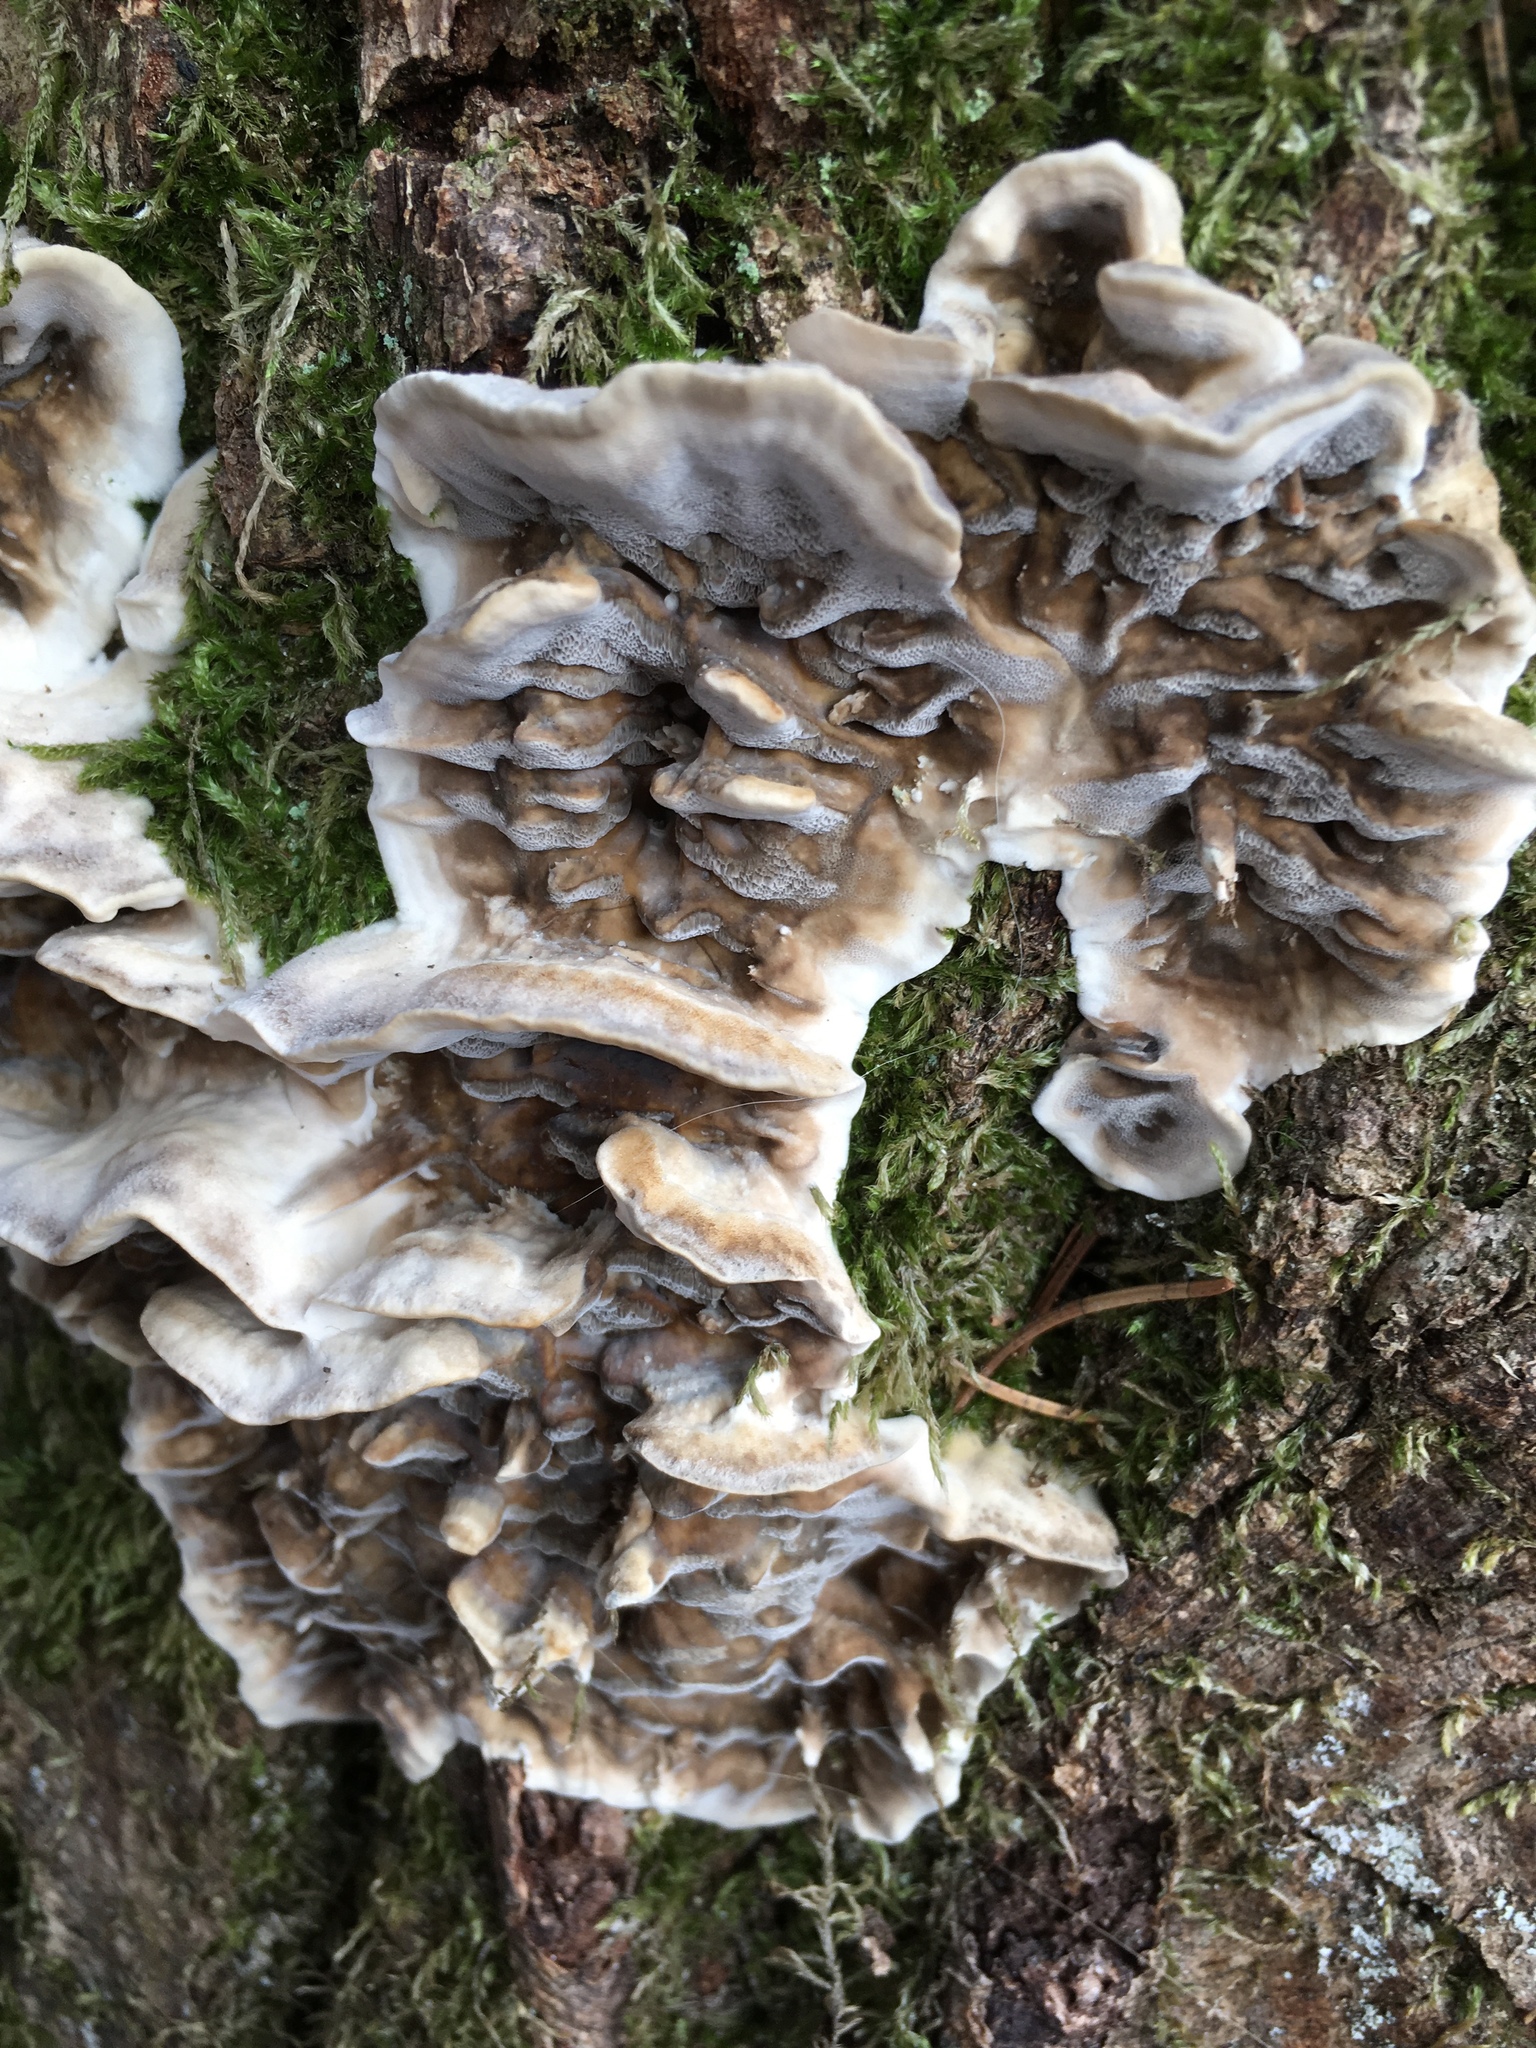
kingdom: Fungi
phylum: Basidiomycota
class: Agaricomycetes
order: Polyporales
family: Phanerochaetaceae
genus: Bjerkandera
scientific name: Bjerkandera adusta
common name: Smoky bracket
